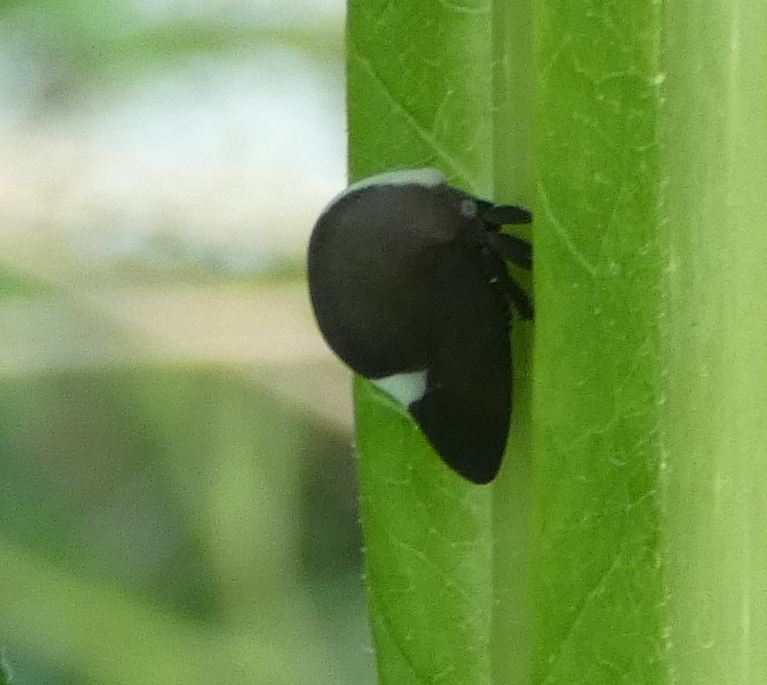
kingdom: Animalia
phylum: Arthropoda
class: Insecta
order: Hemiptera
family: Membracidae
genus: Membracis
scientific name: Membracis dorsata
